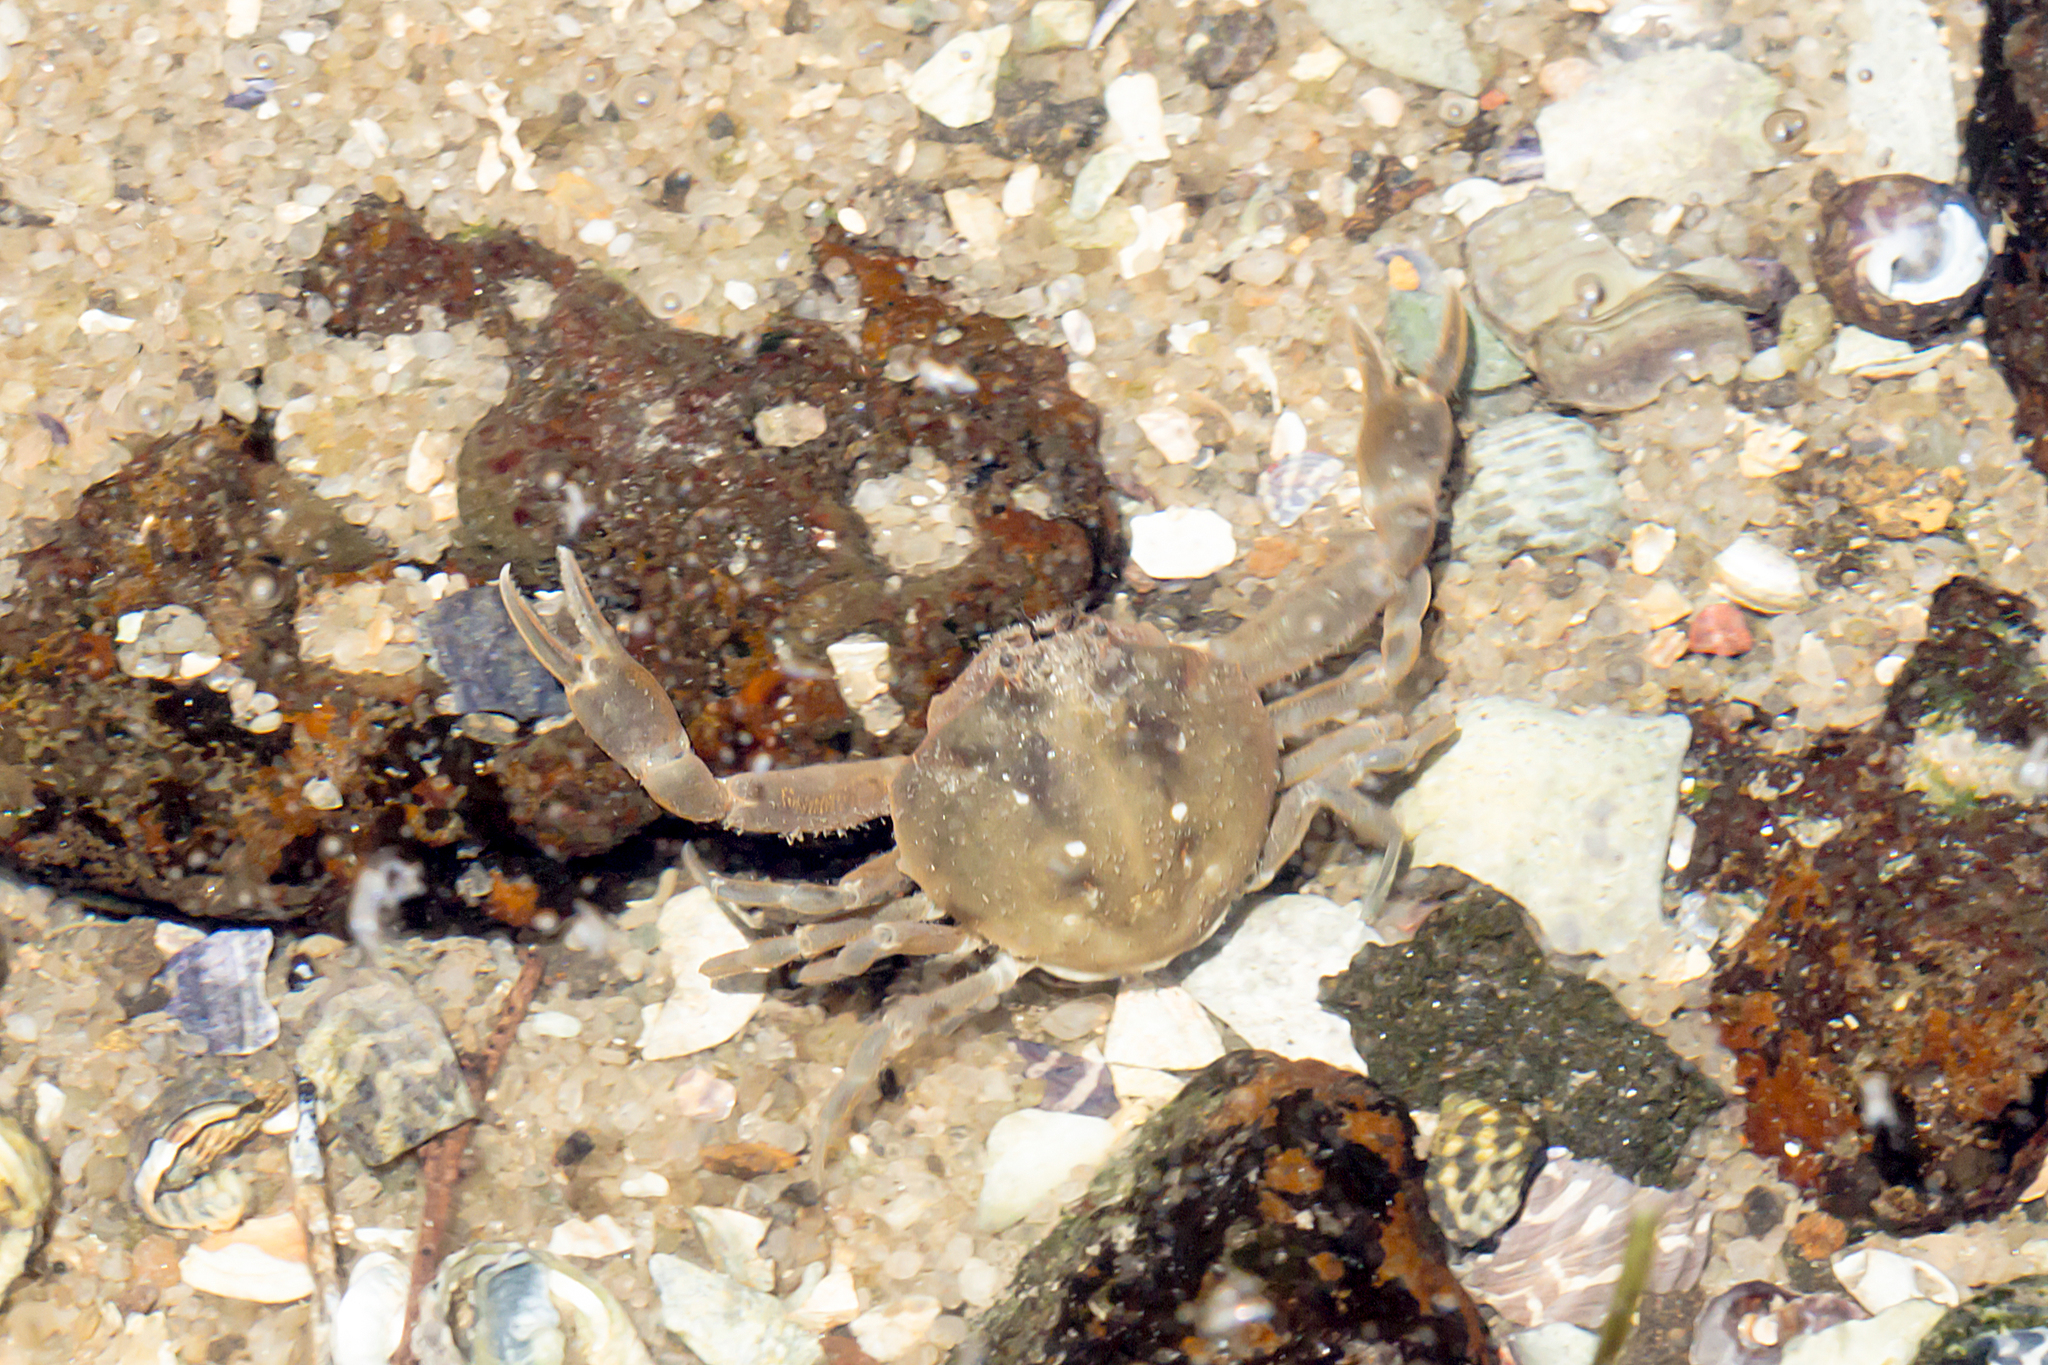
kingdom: Animalia
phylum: Arthropoda
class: Malacostraca
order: Decapoda
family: Leucosiidae
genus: Bellidilia
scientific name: Bellidilia laevis
